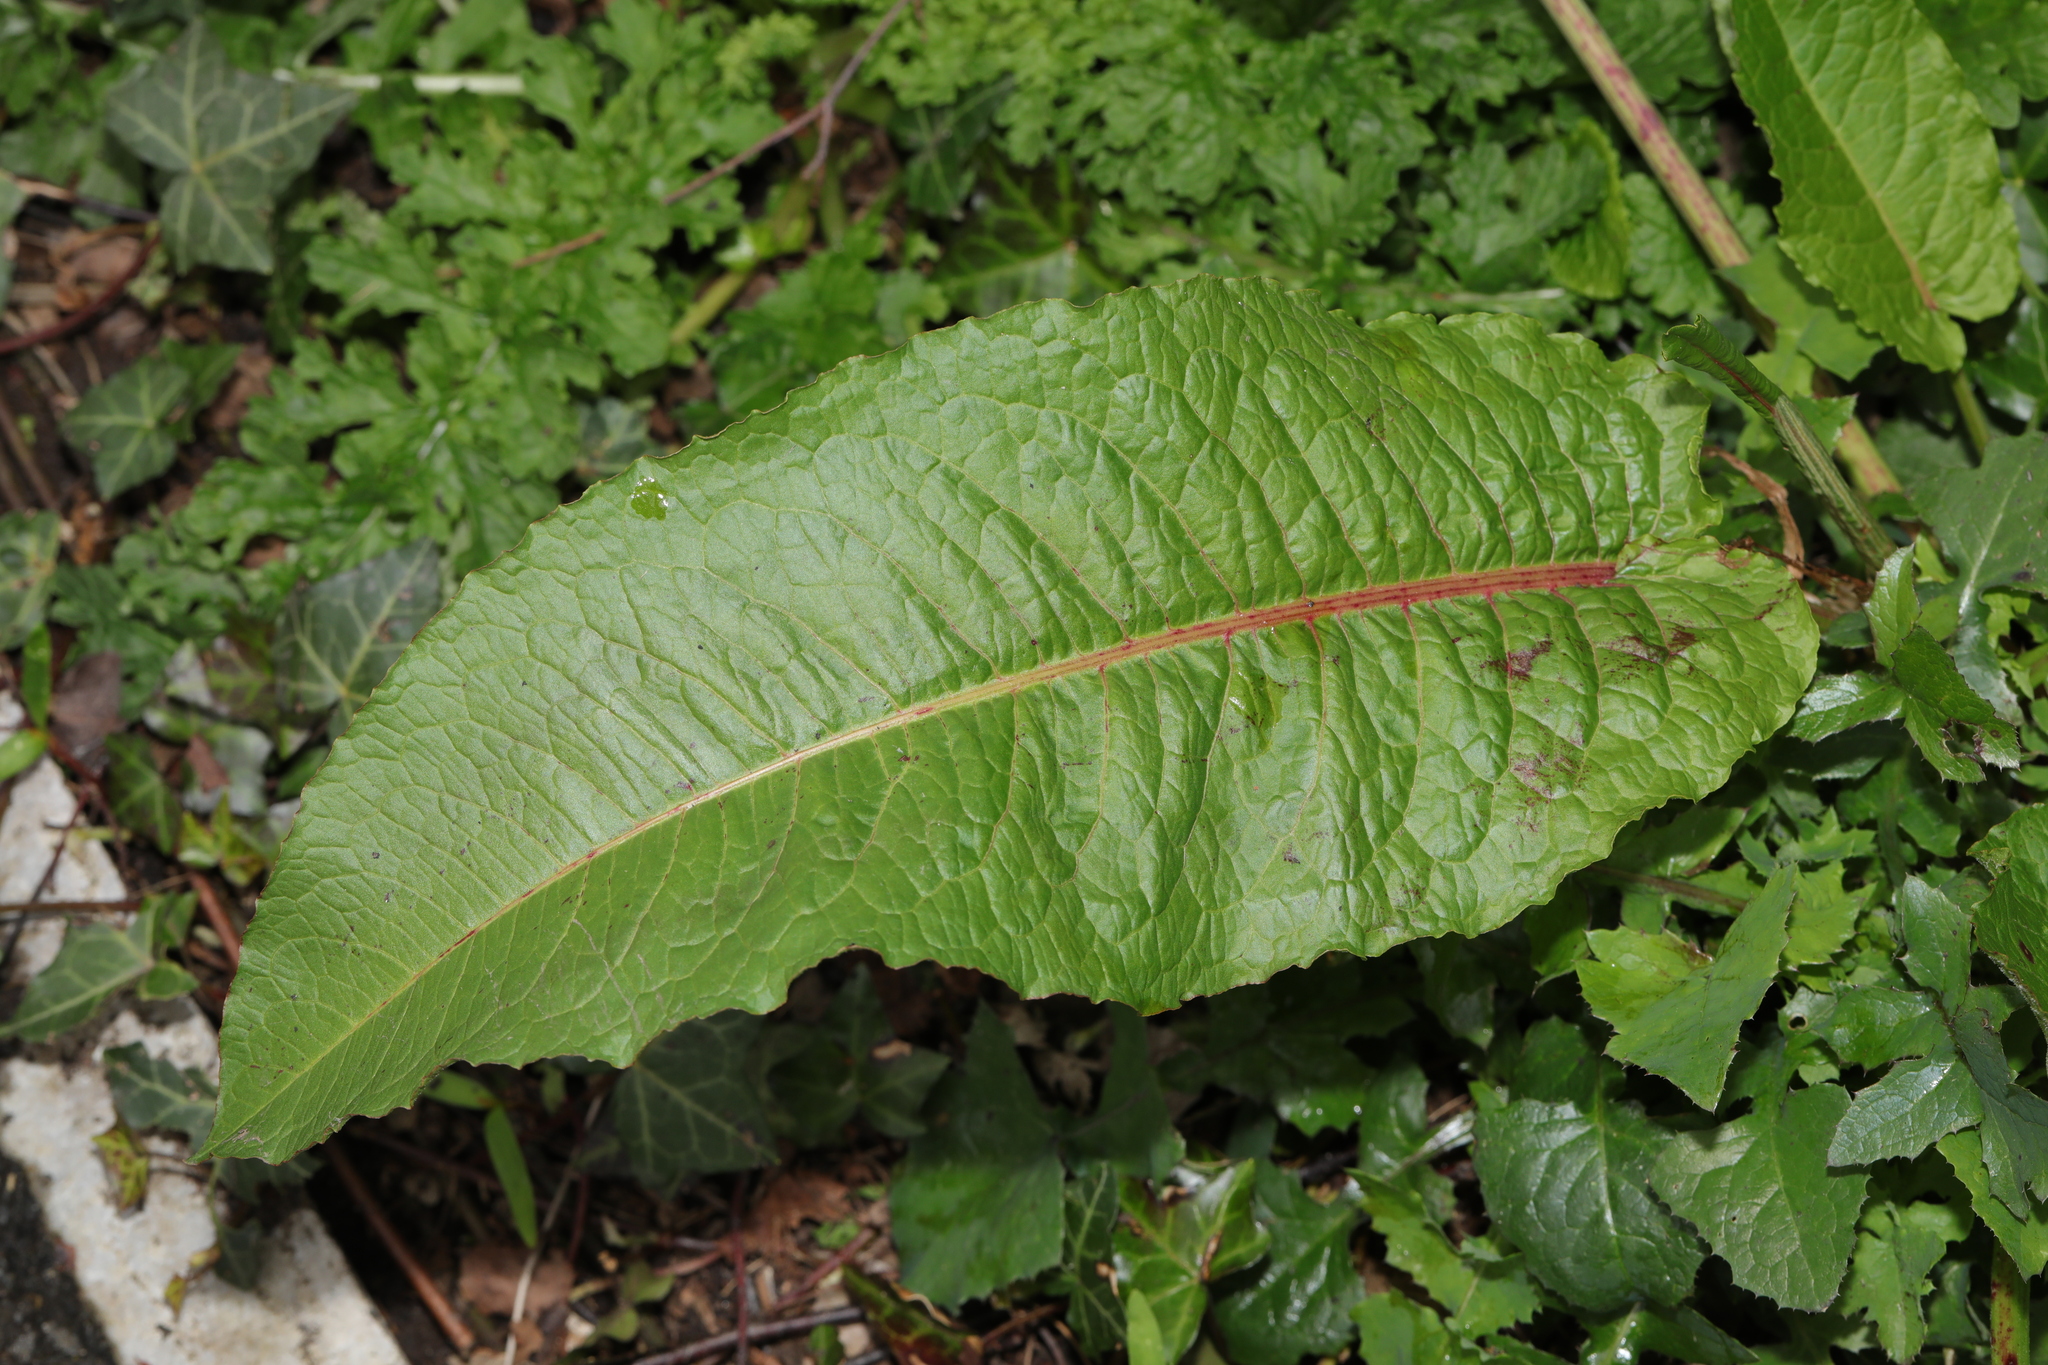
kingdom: Plantae
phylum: Tracheophyta
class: Magnoliopsida
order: Caryophyllales
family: Polygonaceae
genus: Rumex
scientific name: Rumex obtusifolius
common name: Bitter dock
